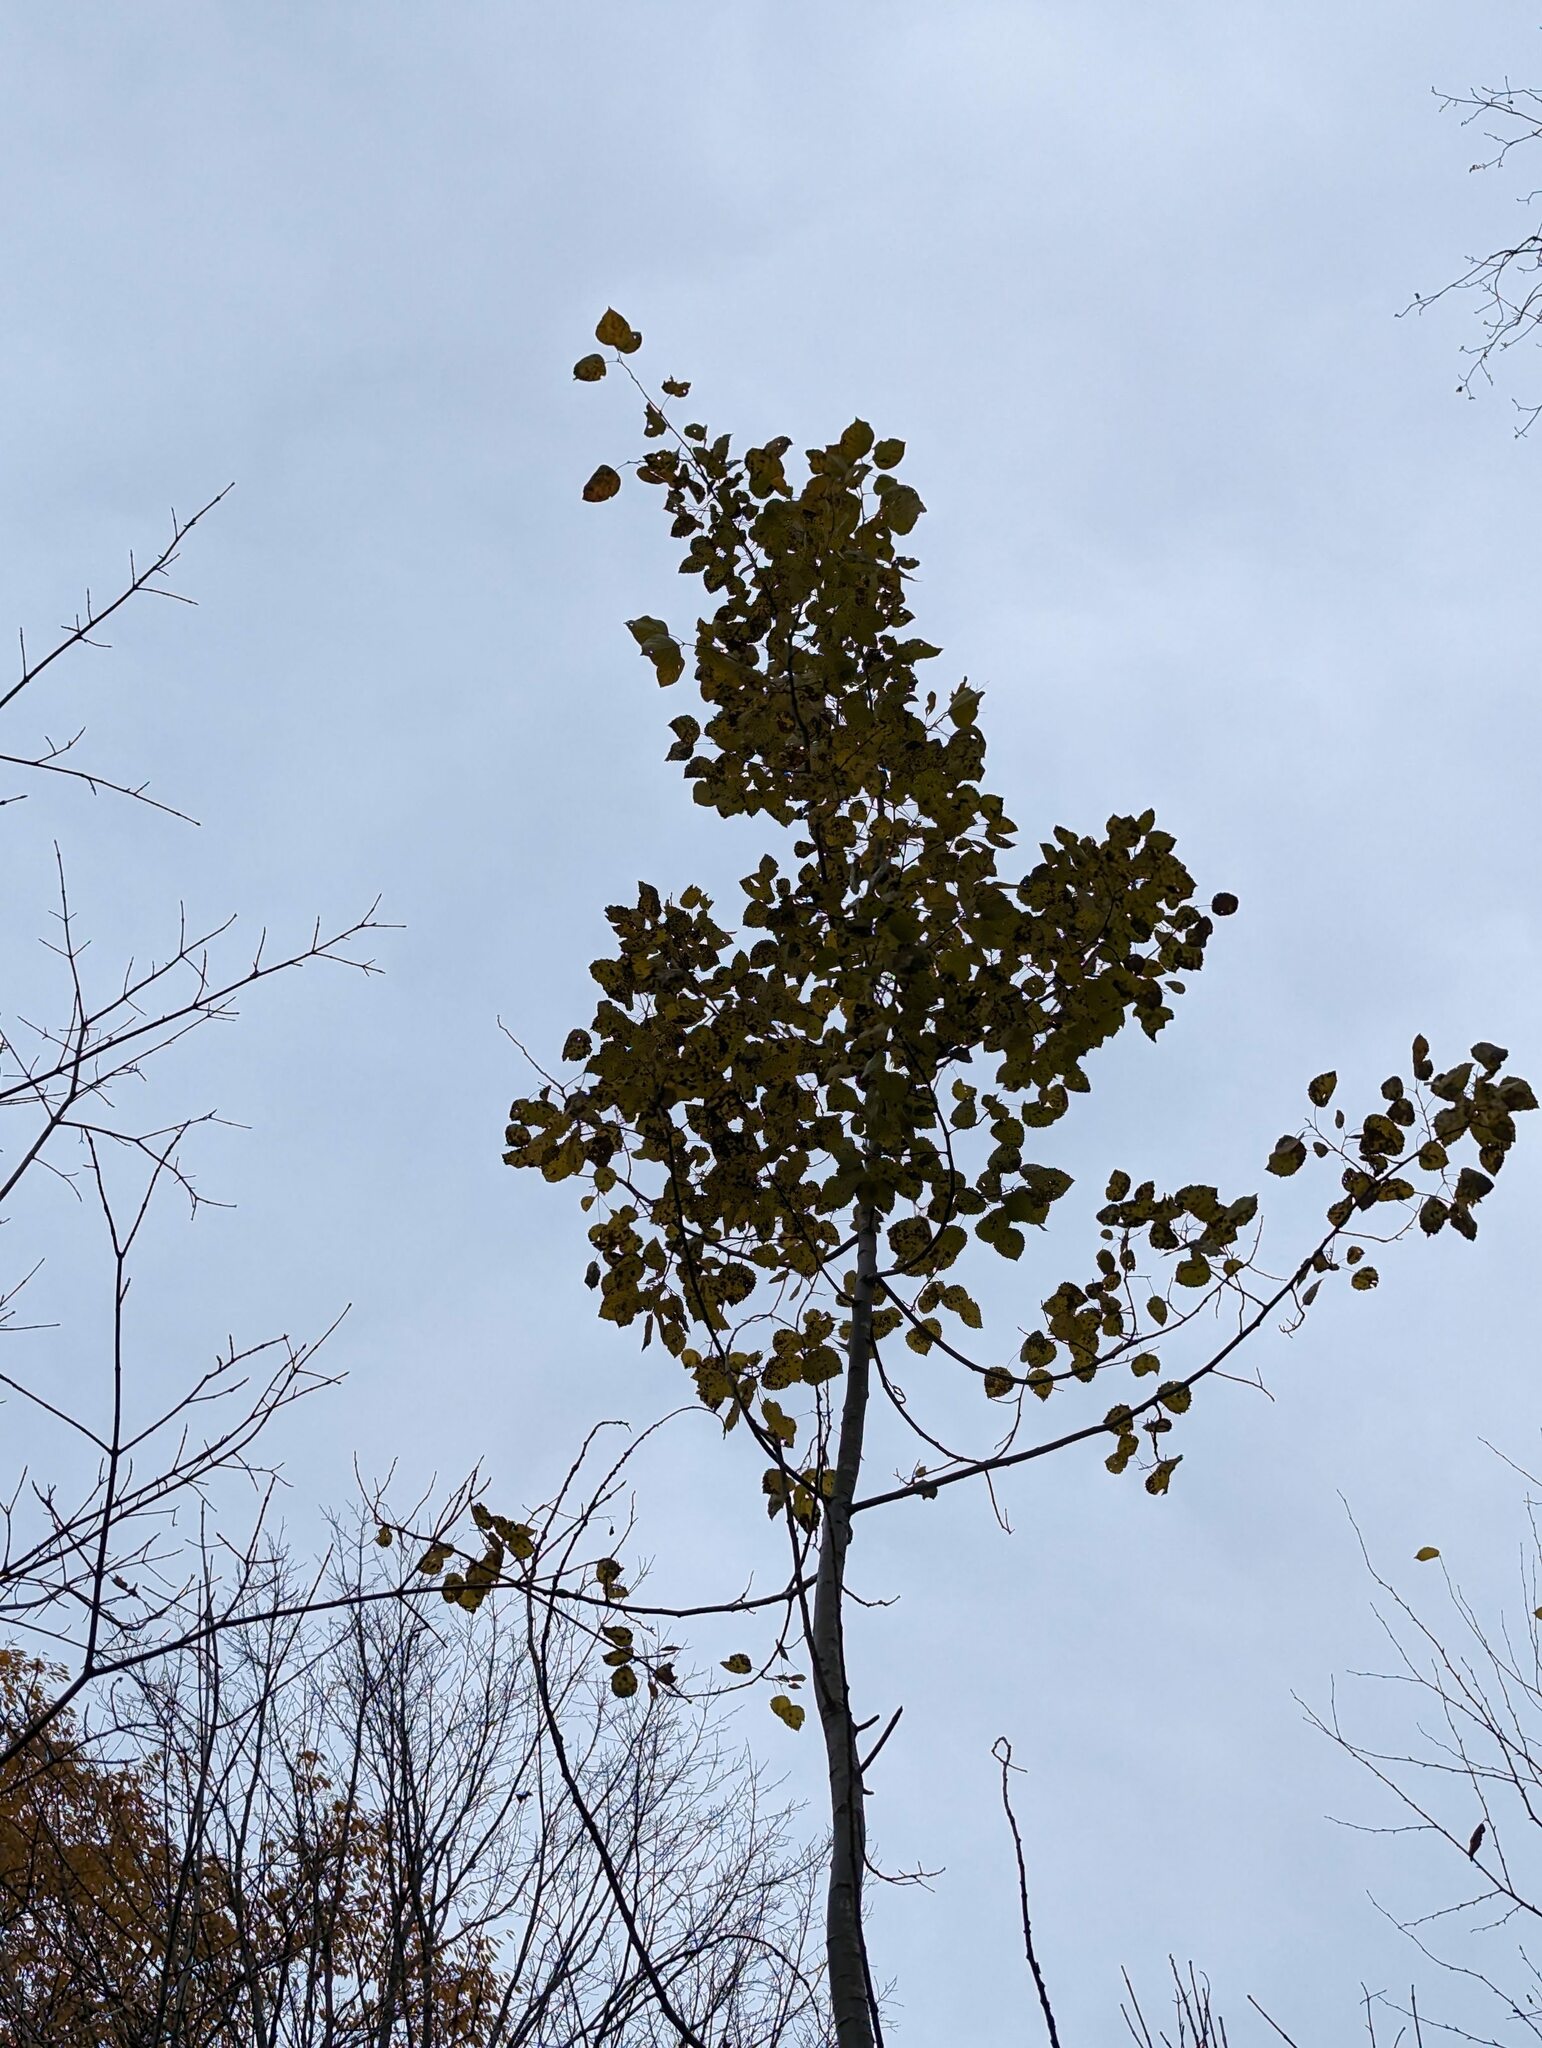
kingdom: Plantae
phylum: Tracheophyta
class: Magnoliopsida
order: Malpighiales
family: Salicaceae
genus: Populus
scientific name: Populus grandidentata
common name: Bigtooth aspen
